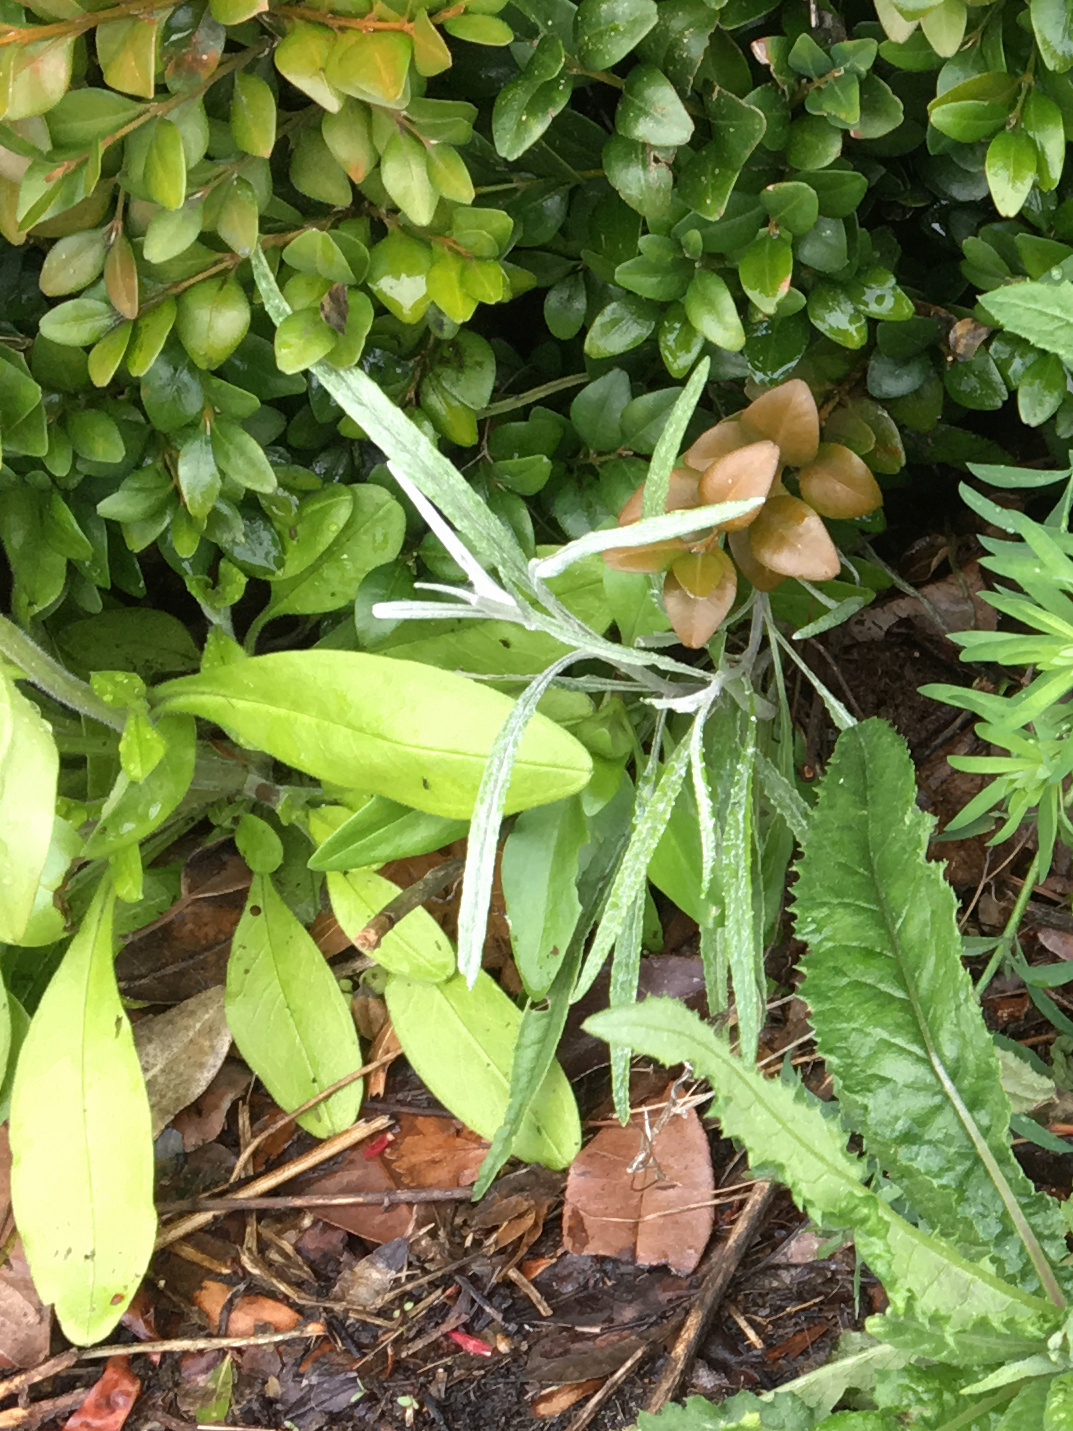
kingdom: Plantae
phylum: Tracheophyta
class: Magnoliopsida
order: Asterales
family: Asteraceae
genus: Senecio
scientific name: Senecio quadridentatus
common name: Cotton fireweed
